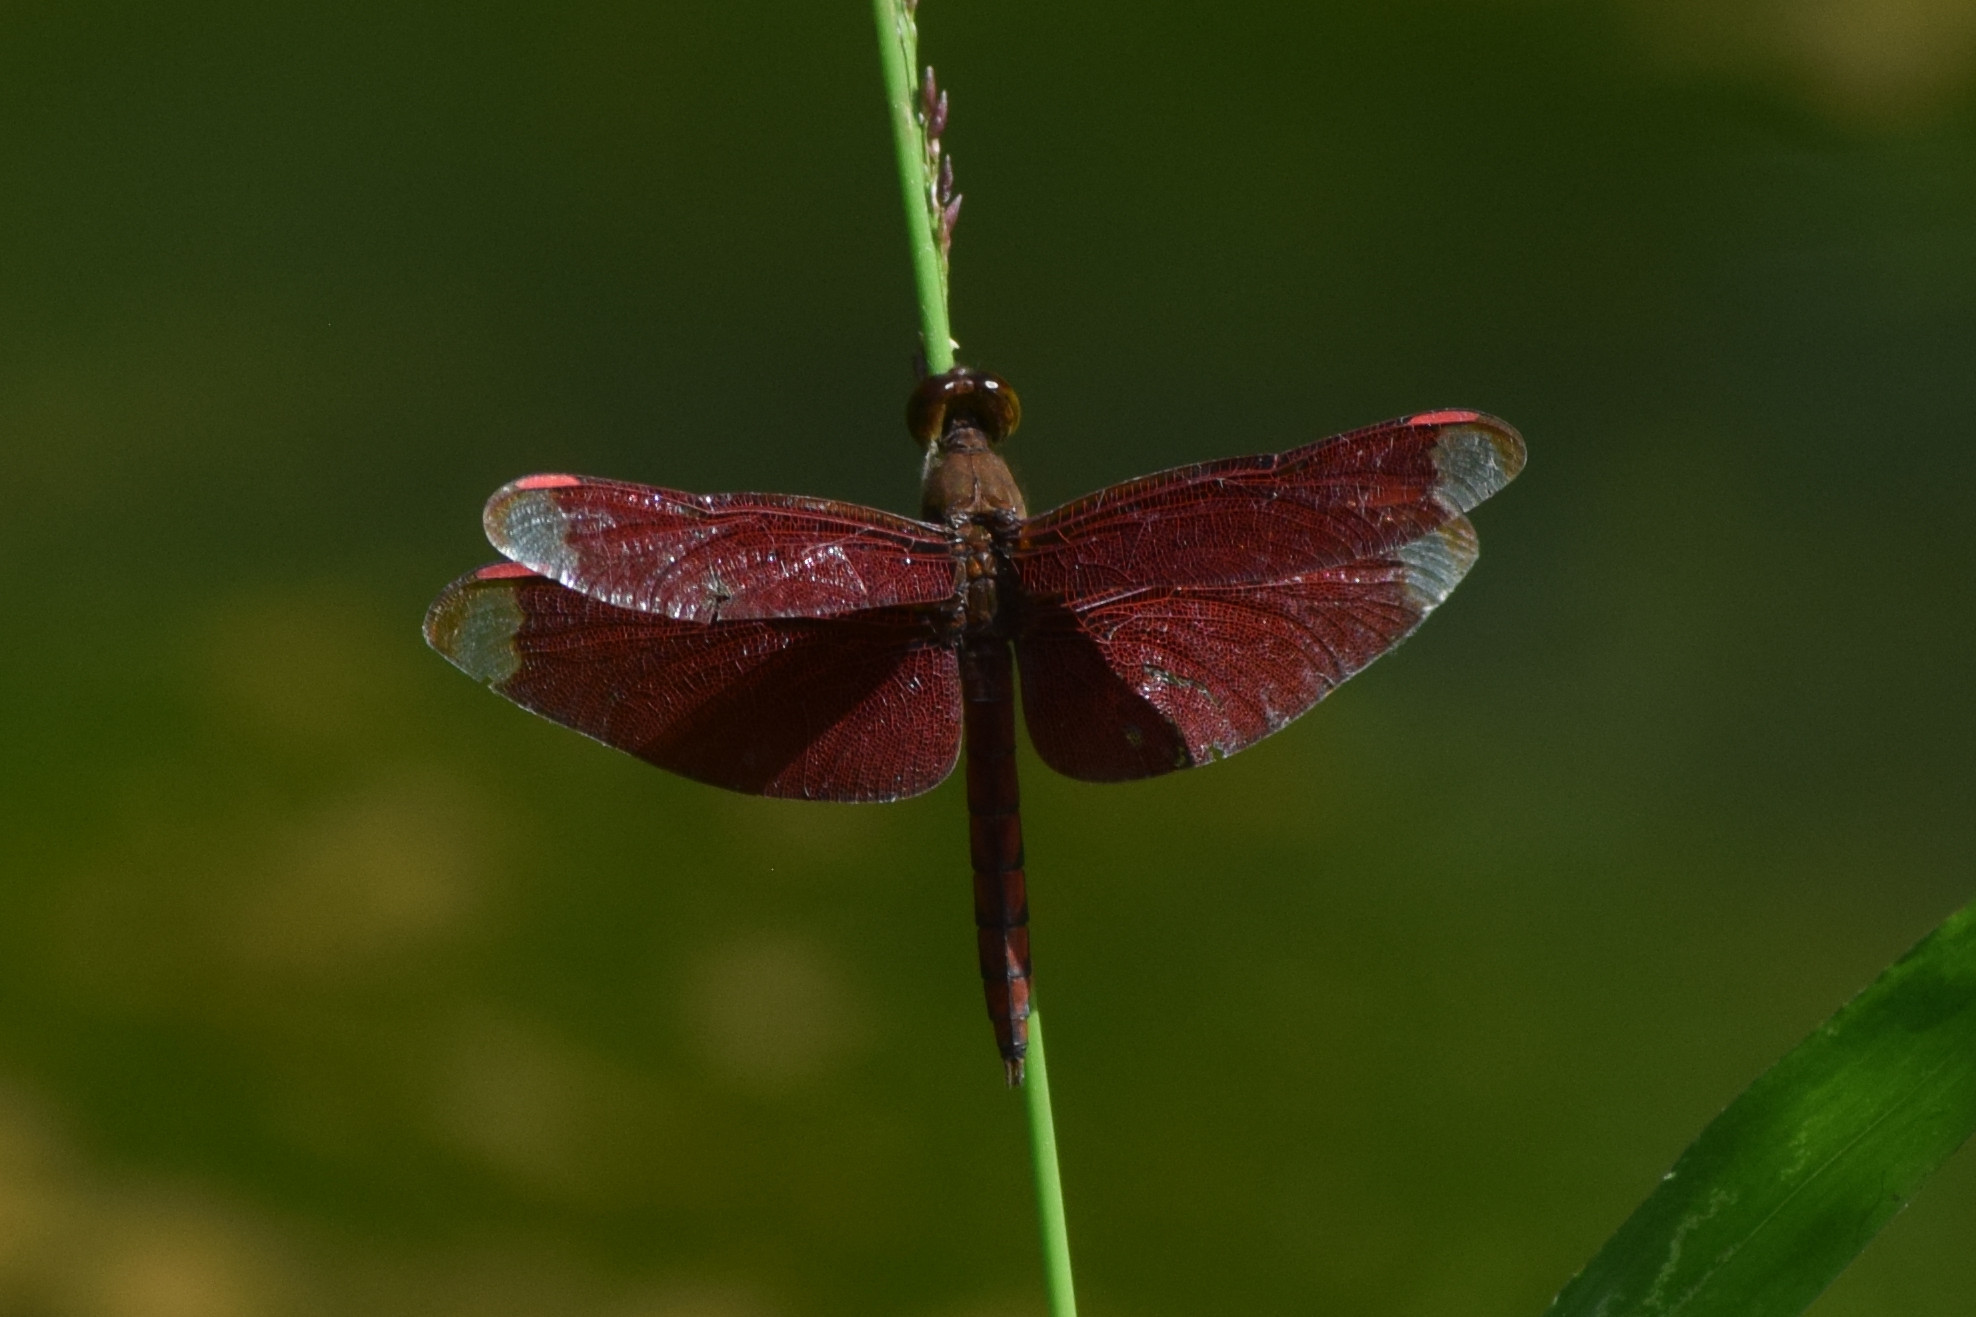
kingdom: Animalia
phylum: Arthropoda
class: Insecta
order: Odonata
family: Libellulidae
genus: Neurothemis
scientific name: Neurothemis fulvia
